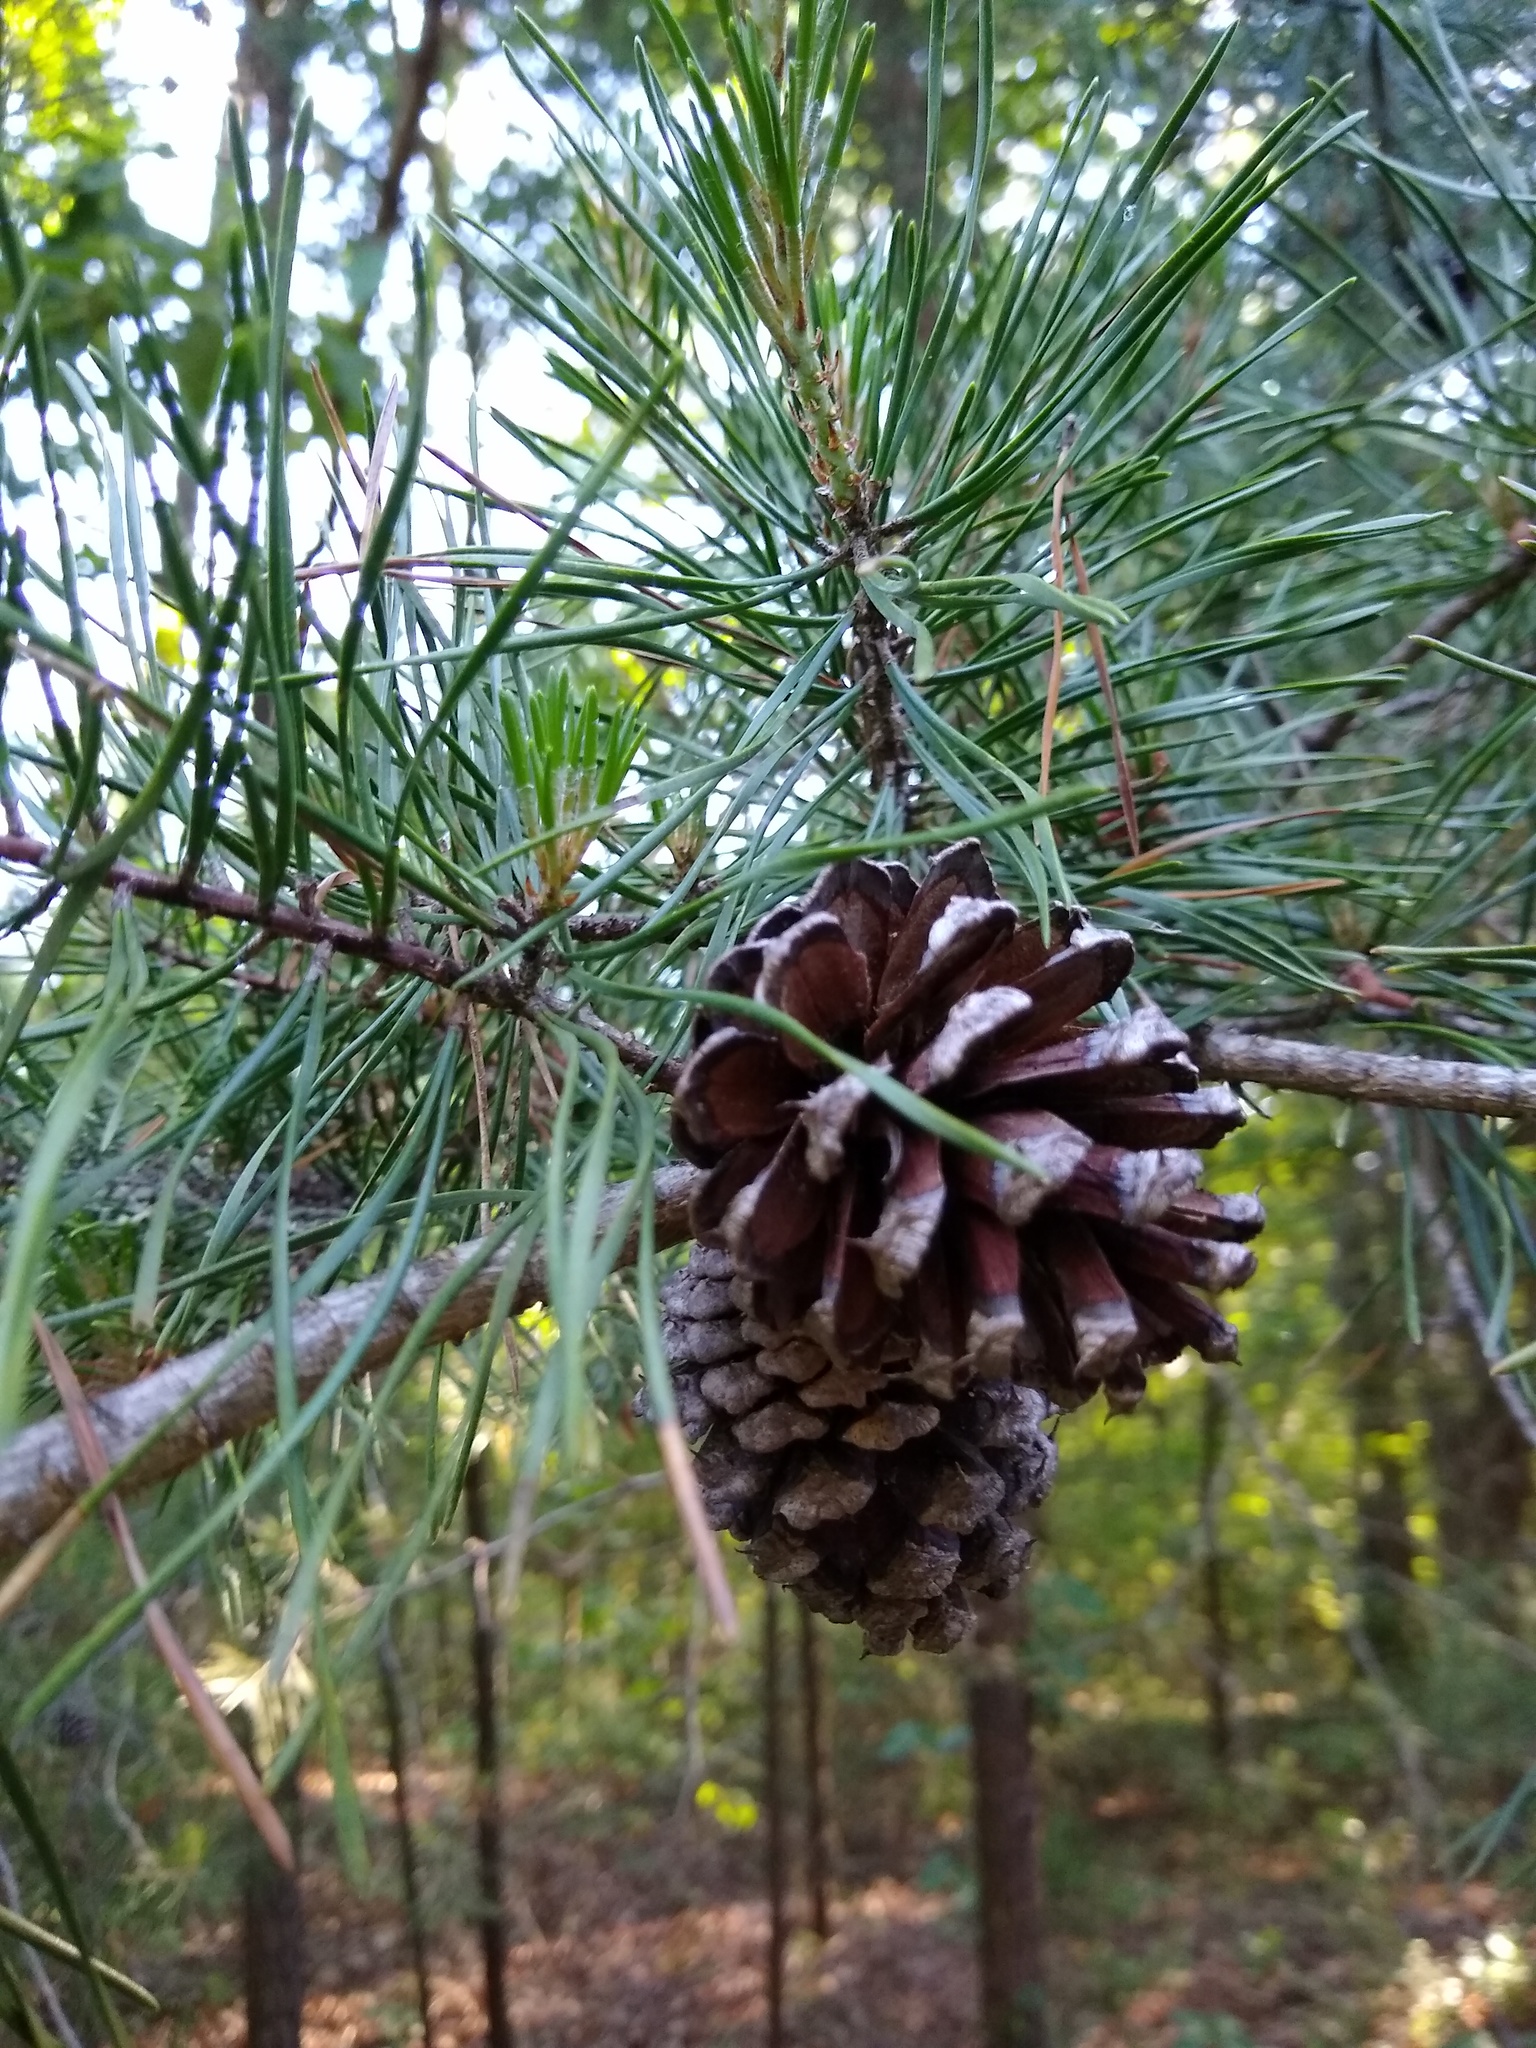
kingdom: Plantae
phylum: Tracheophyta
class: Pinopsida
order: Pinales
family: Pinaceae
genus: Pinus
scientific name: Pinus virginiana
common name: Scrub pine
